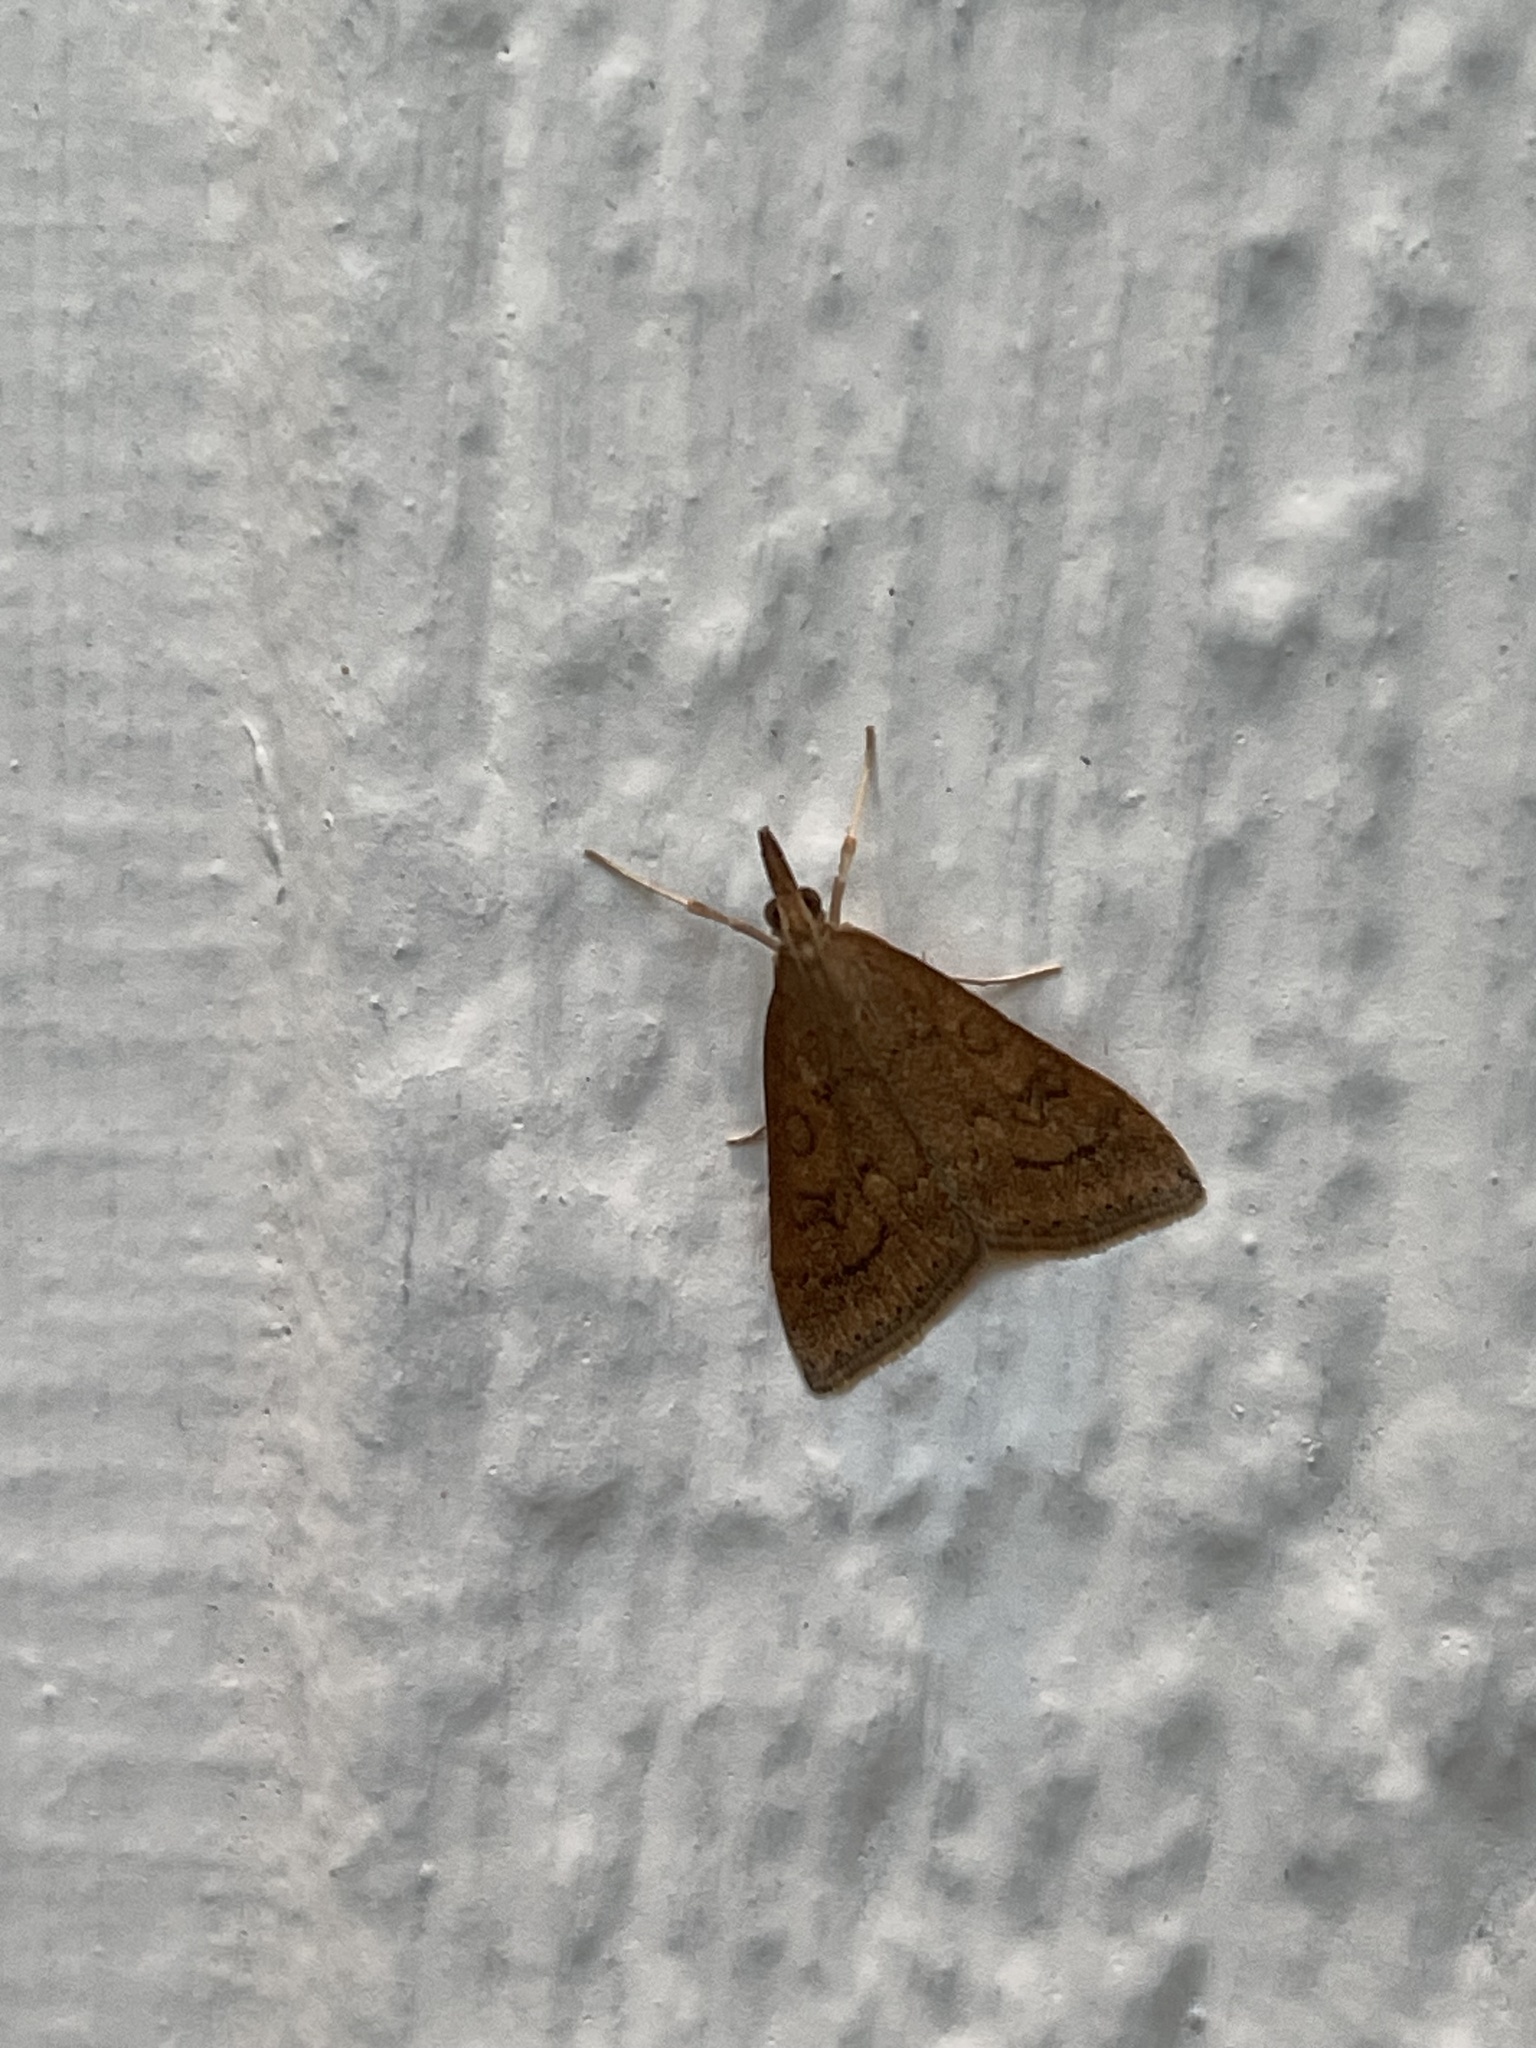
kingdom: Animalia
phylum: Arthropoda
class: Insecta
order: Lepidoptera
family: Crambidae
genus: Udea
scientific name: Udea rubigalis
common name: Celery leaftier moth
